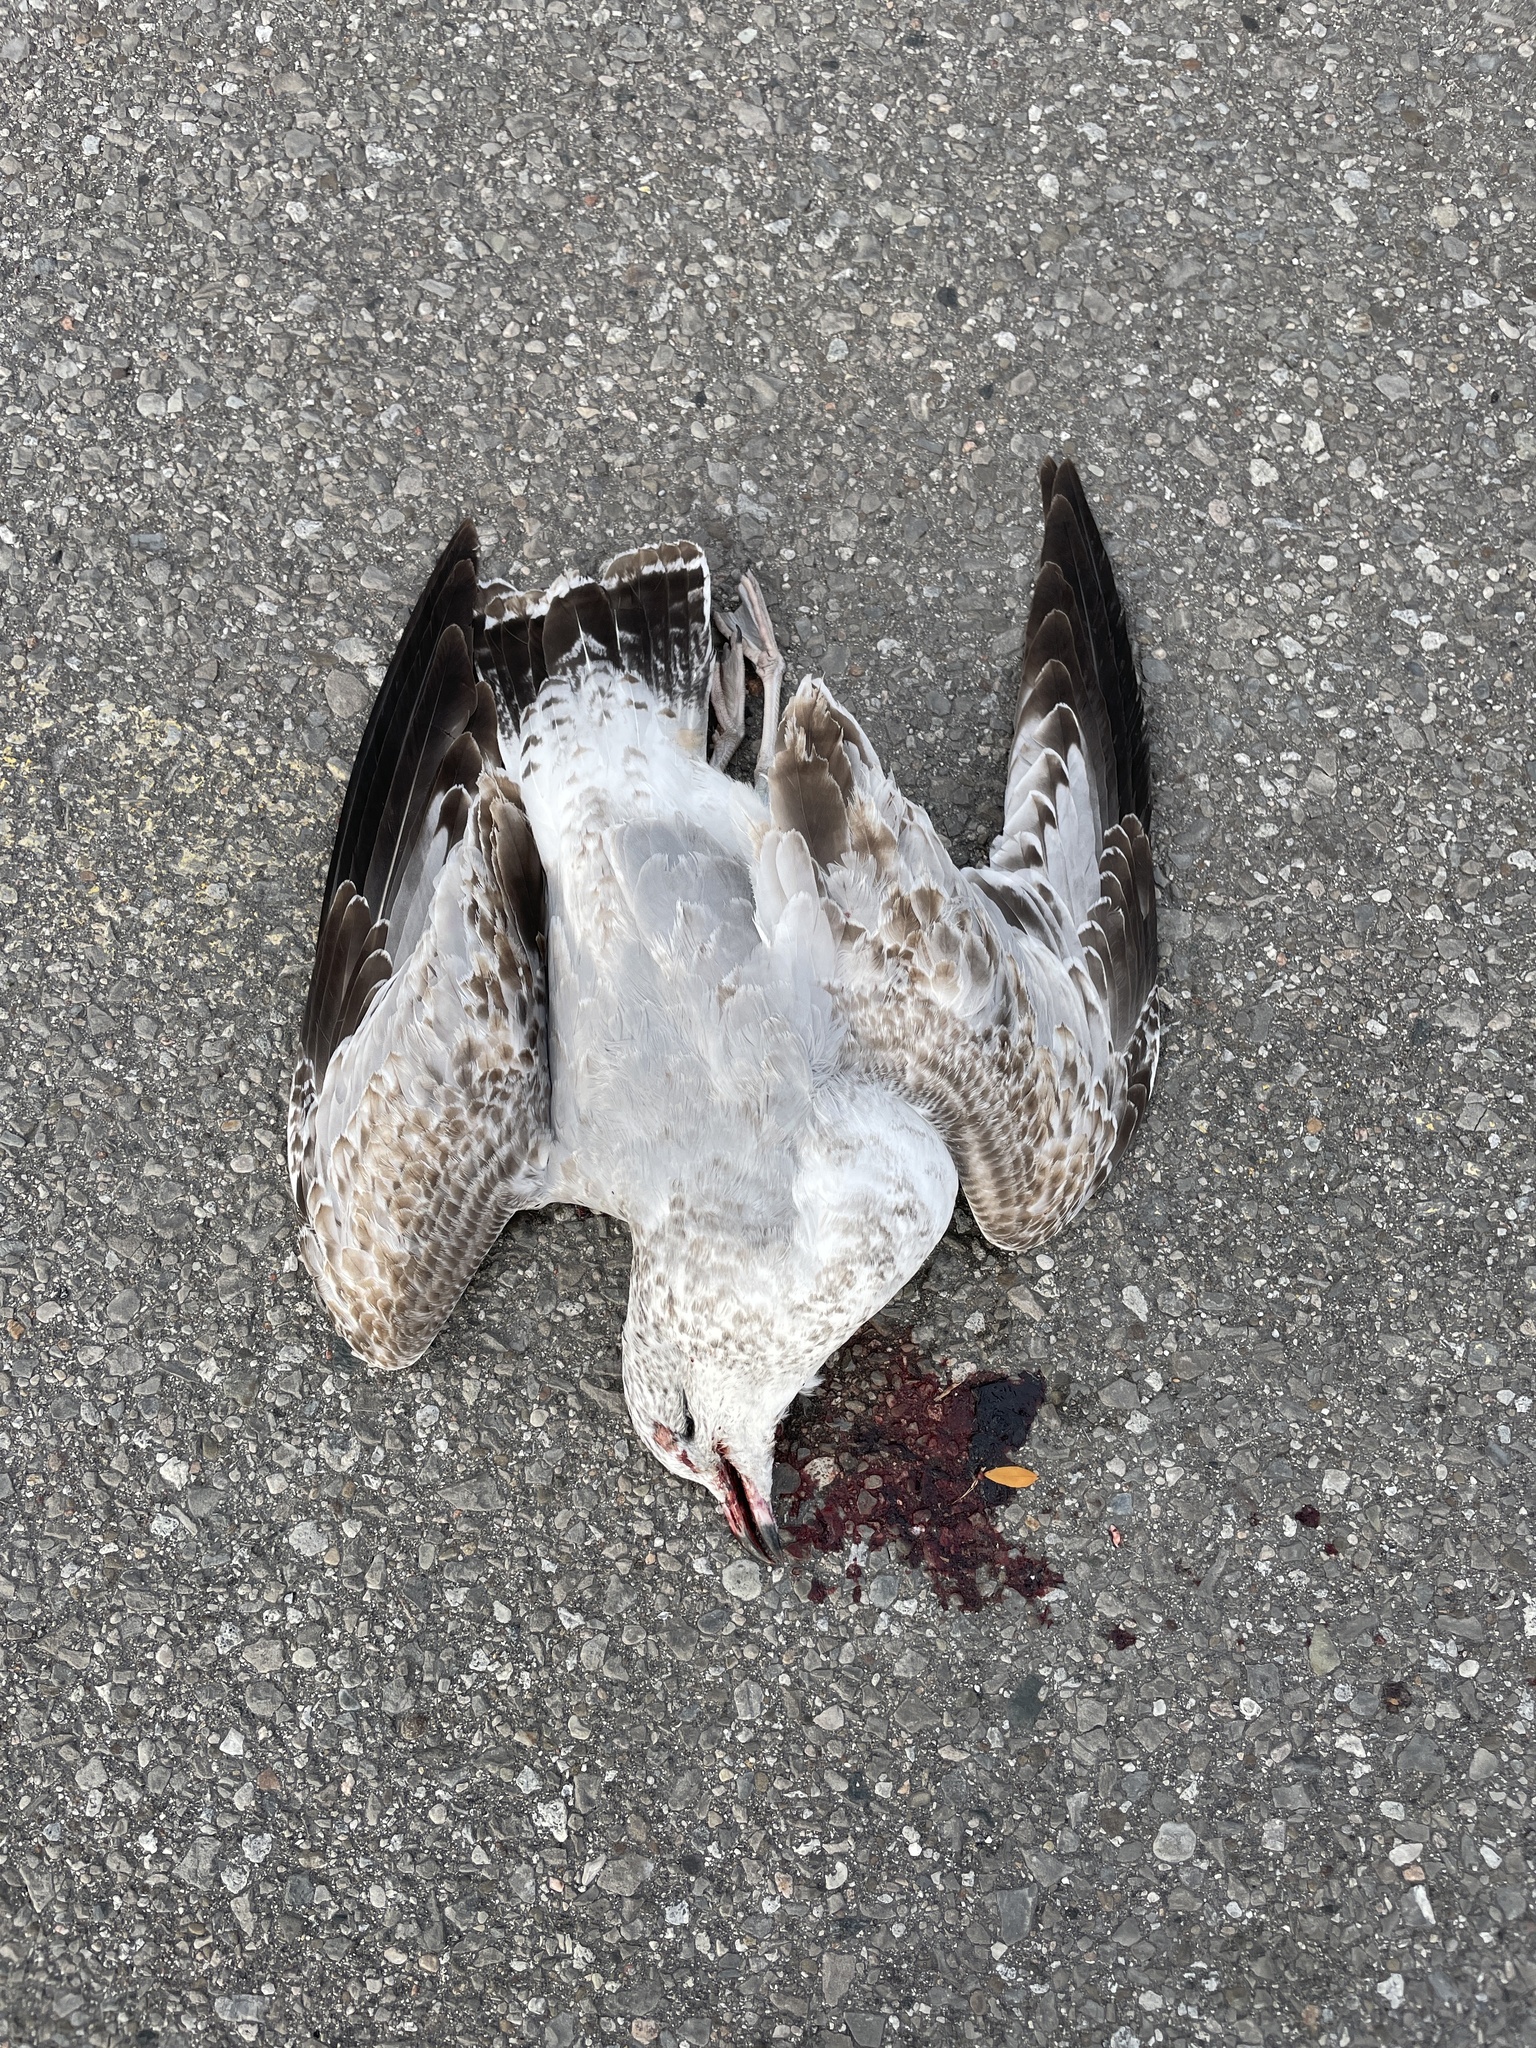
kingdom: Animalia
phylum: Chordata
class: Aves
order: Charadriiformes
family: Laridae
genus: Larus
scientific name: Larus delawarensis
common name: Ring-billed gull
